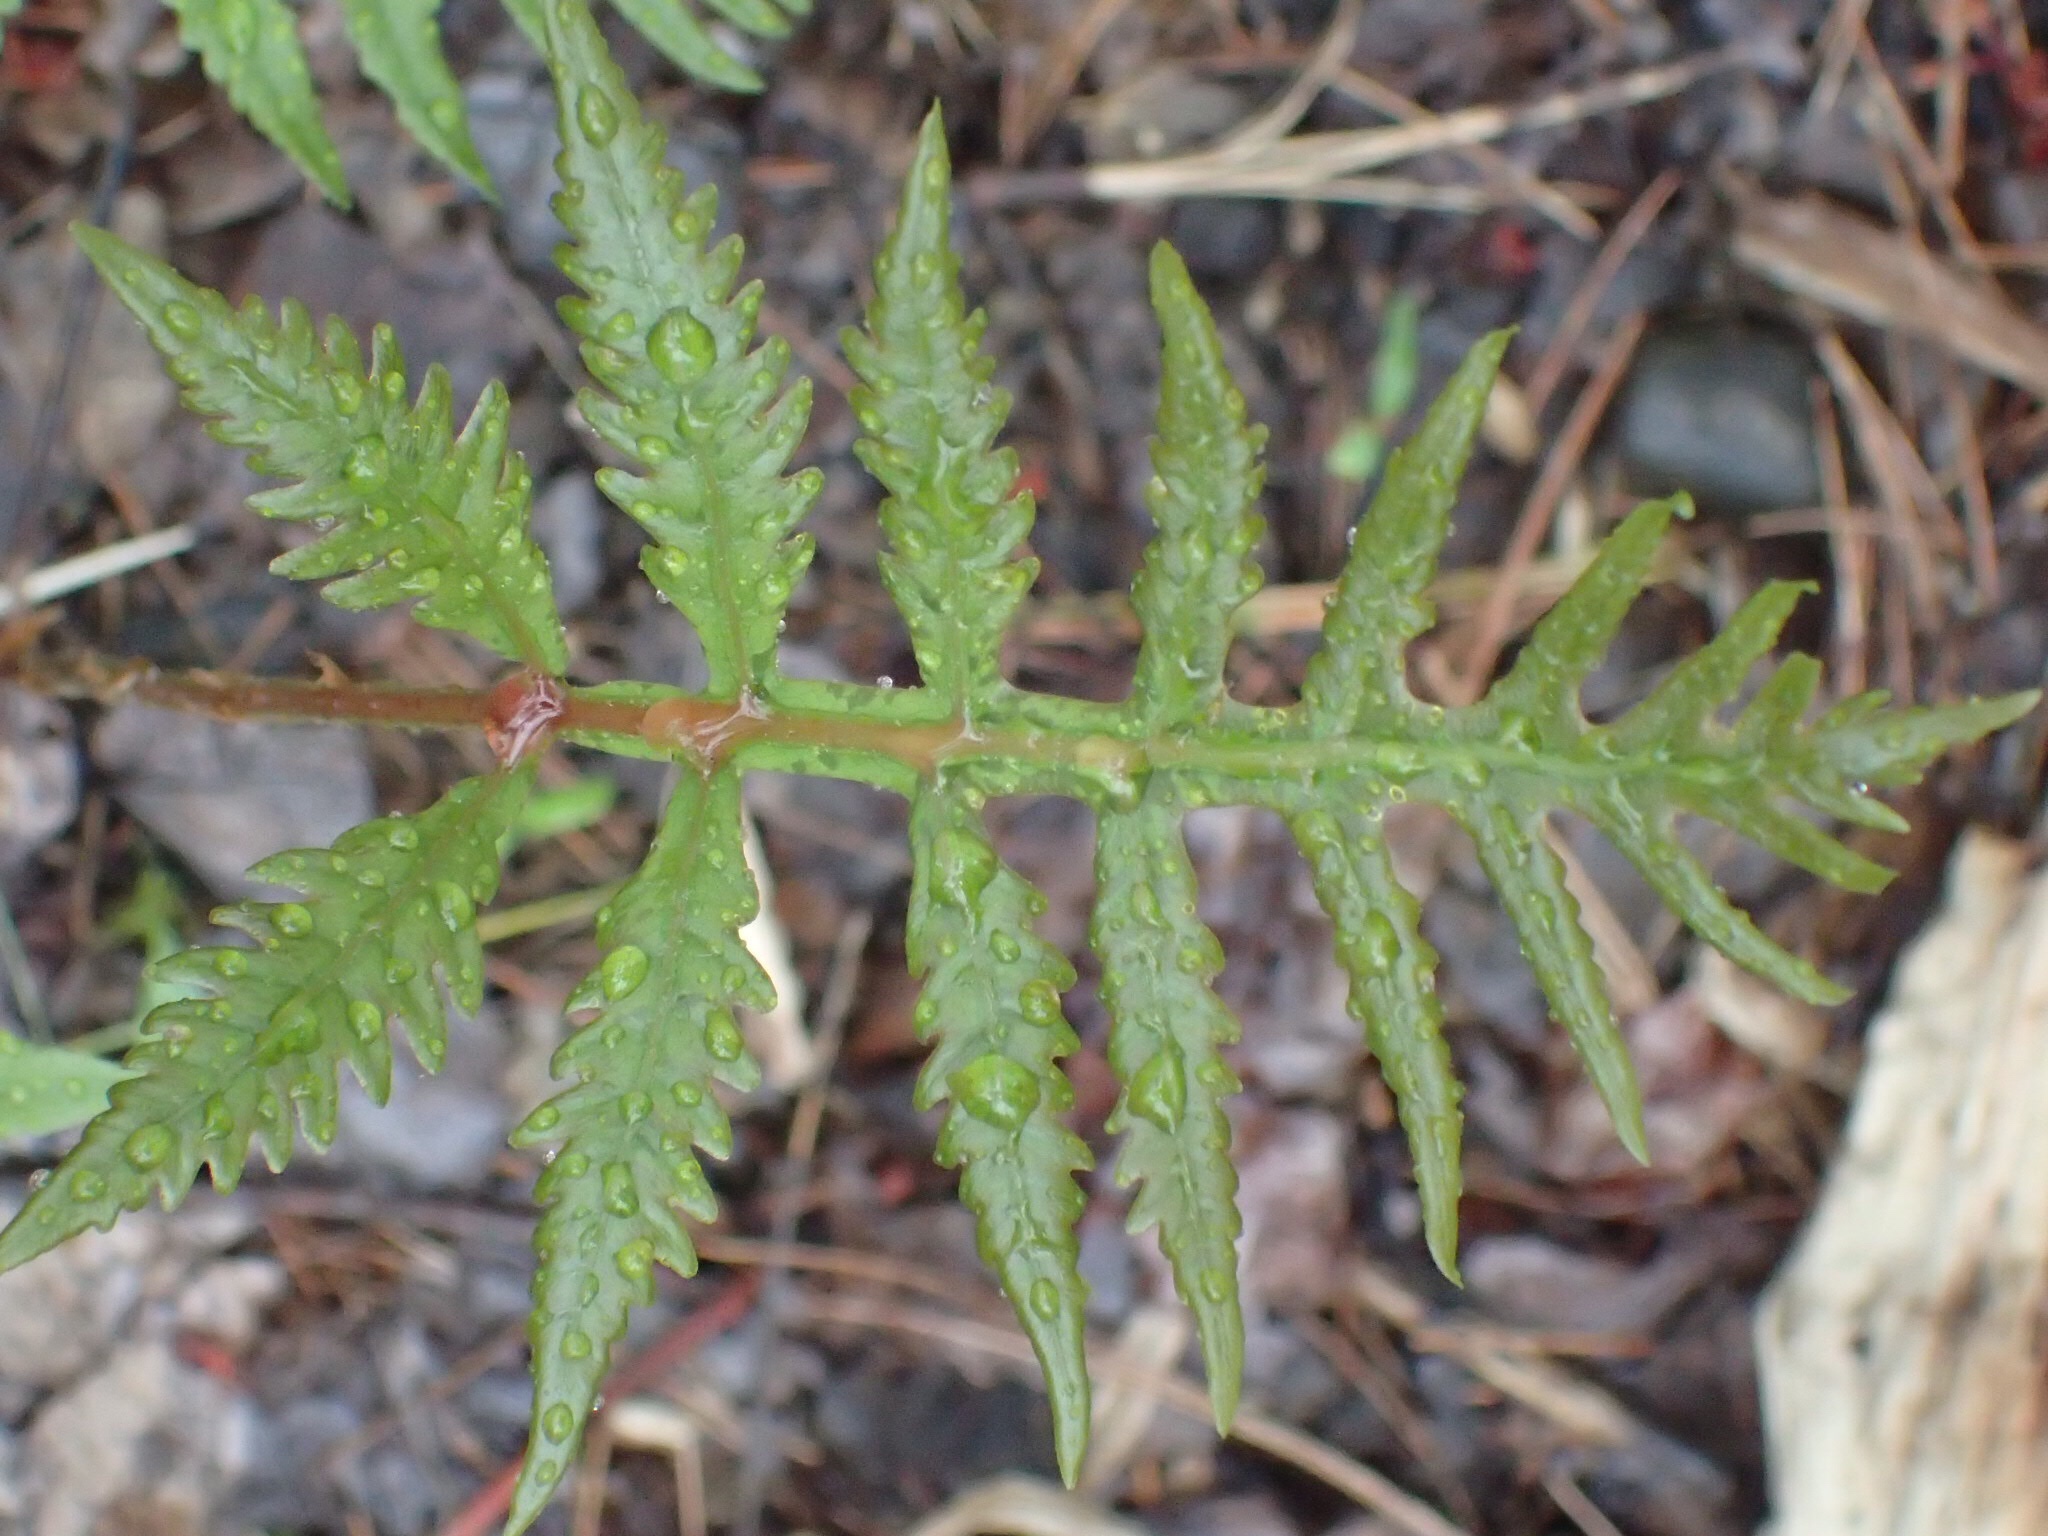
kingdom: Plantae
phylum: Tracheophyta
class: Polypodiopsida
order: Polypodiales
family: Onocleaceae
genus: Onoclea
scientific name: Onoclea sensibilis
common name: Sensitive fern
